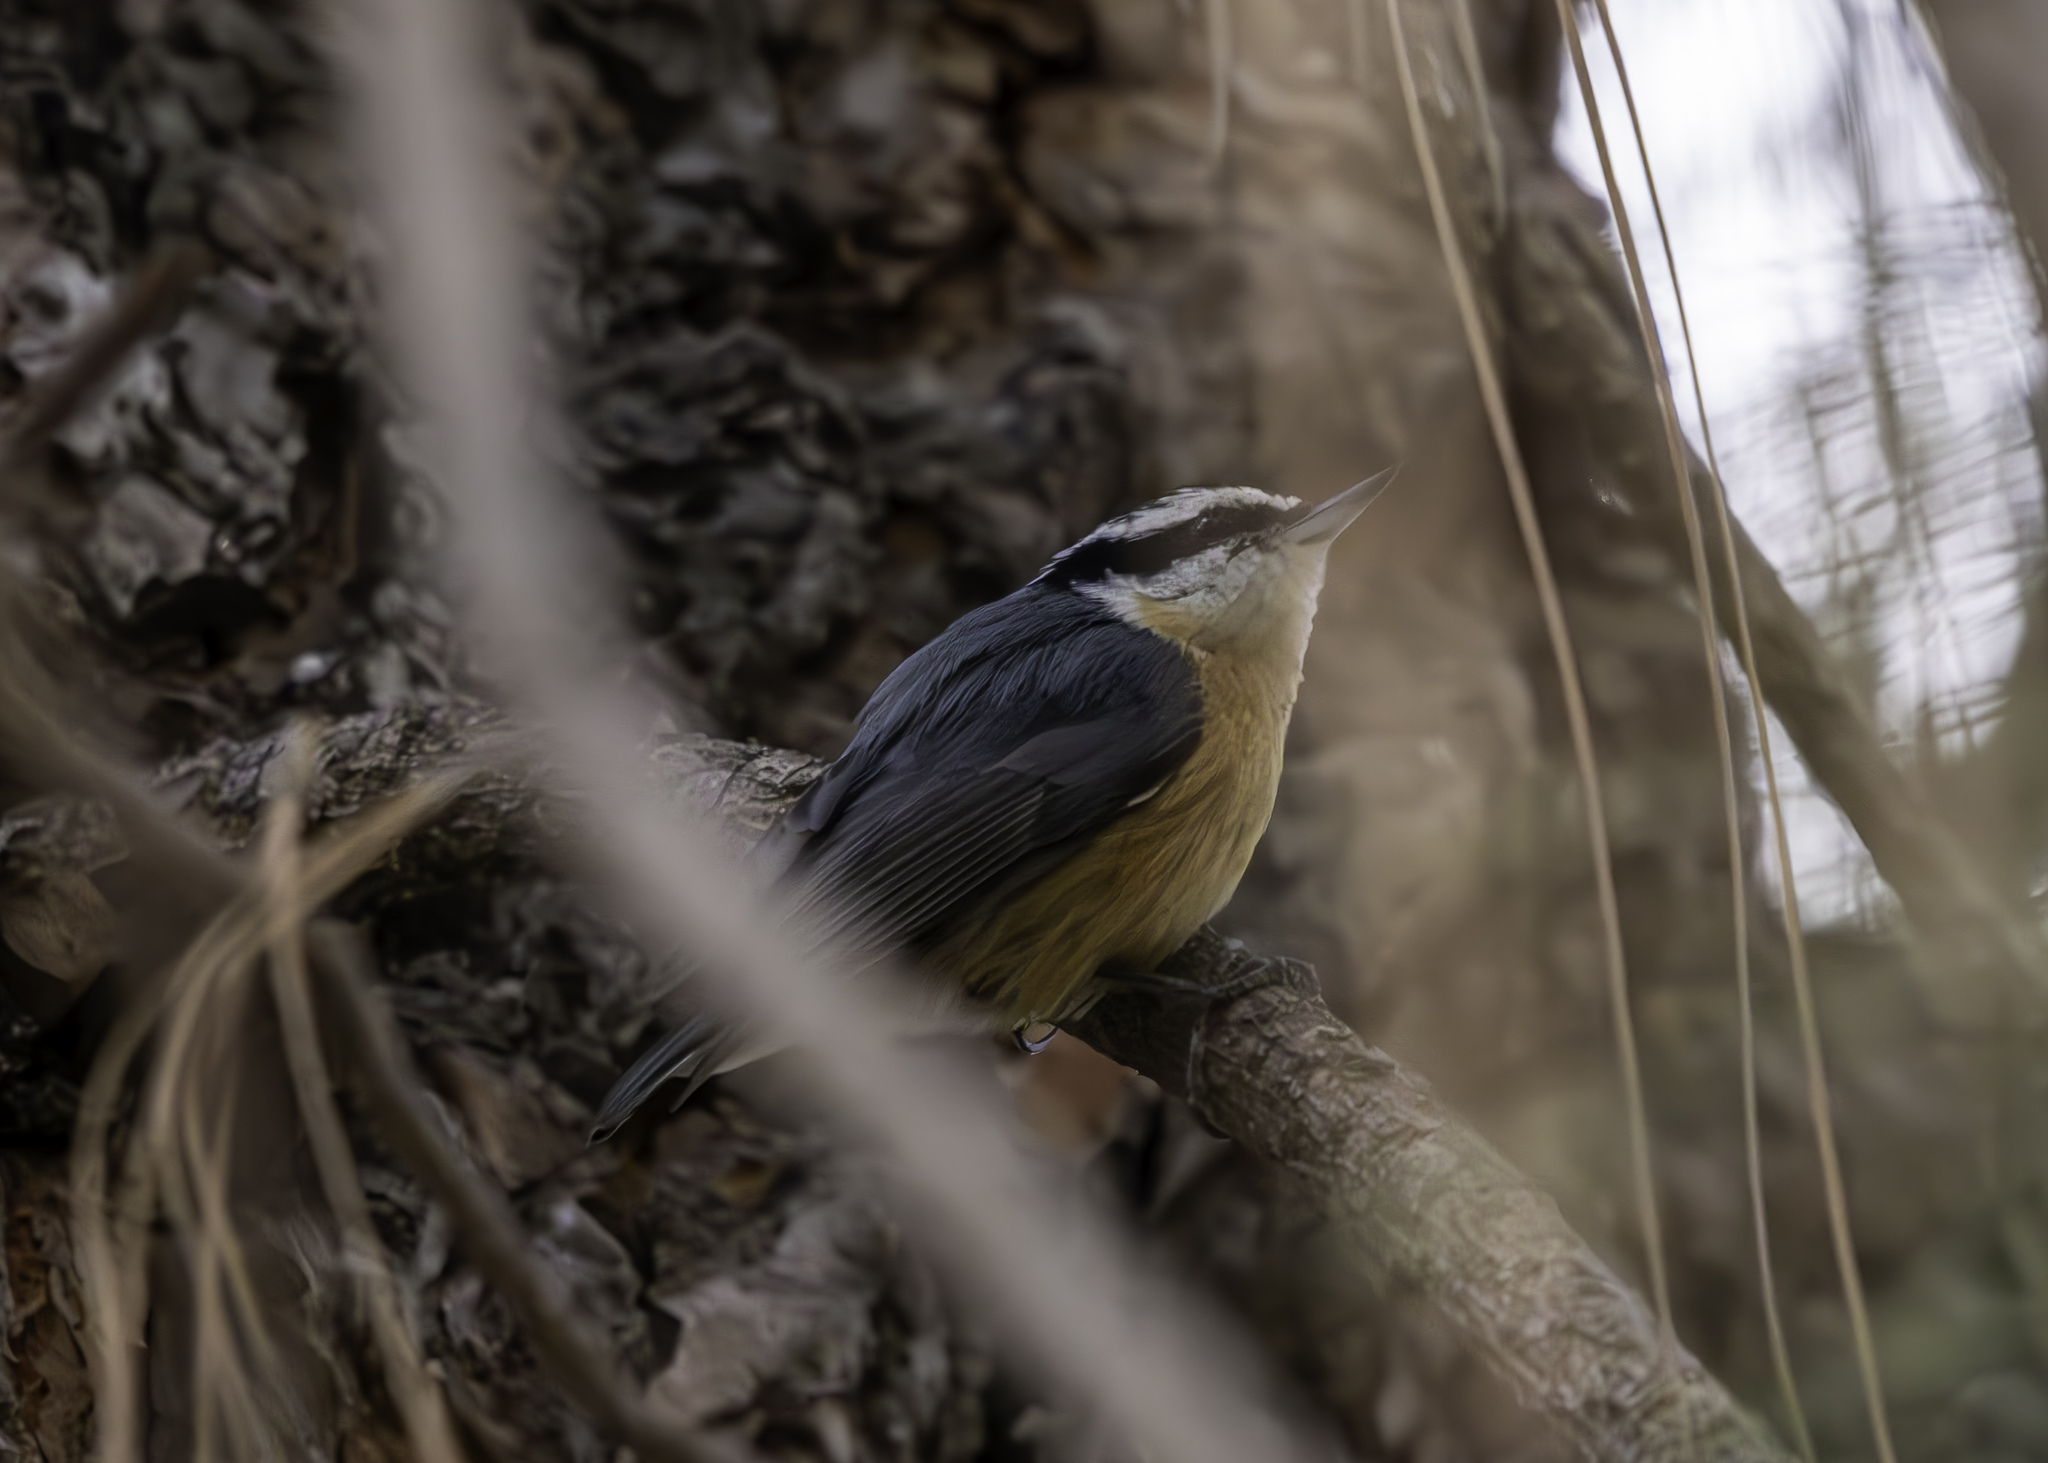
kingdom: Animalia
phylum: Chordata
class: Aves
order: Passeriformes
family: Sittidae
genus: Sitta
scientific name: Sitta canadensis
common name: Red-breasted nuthatch
